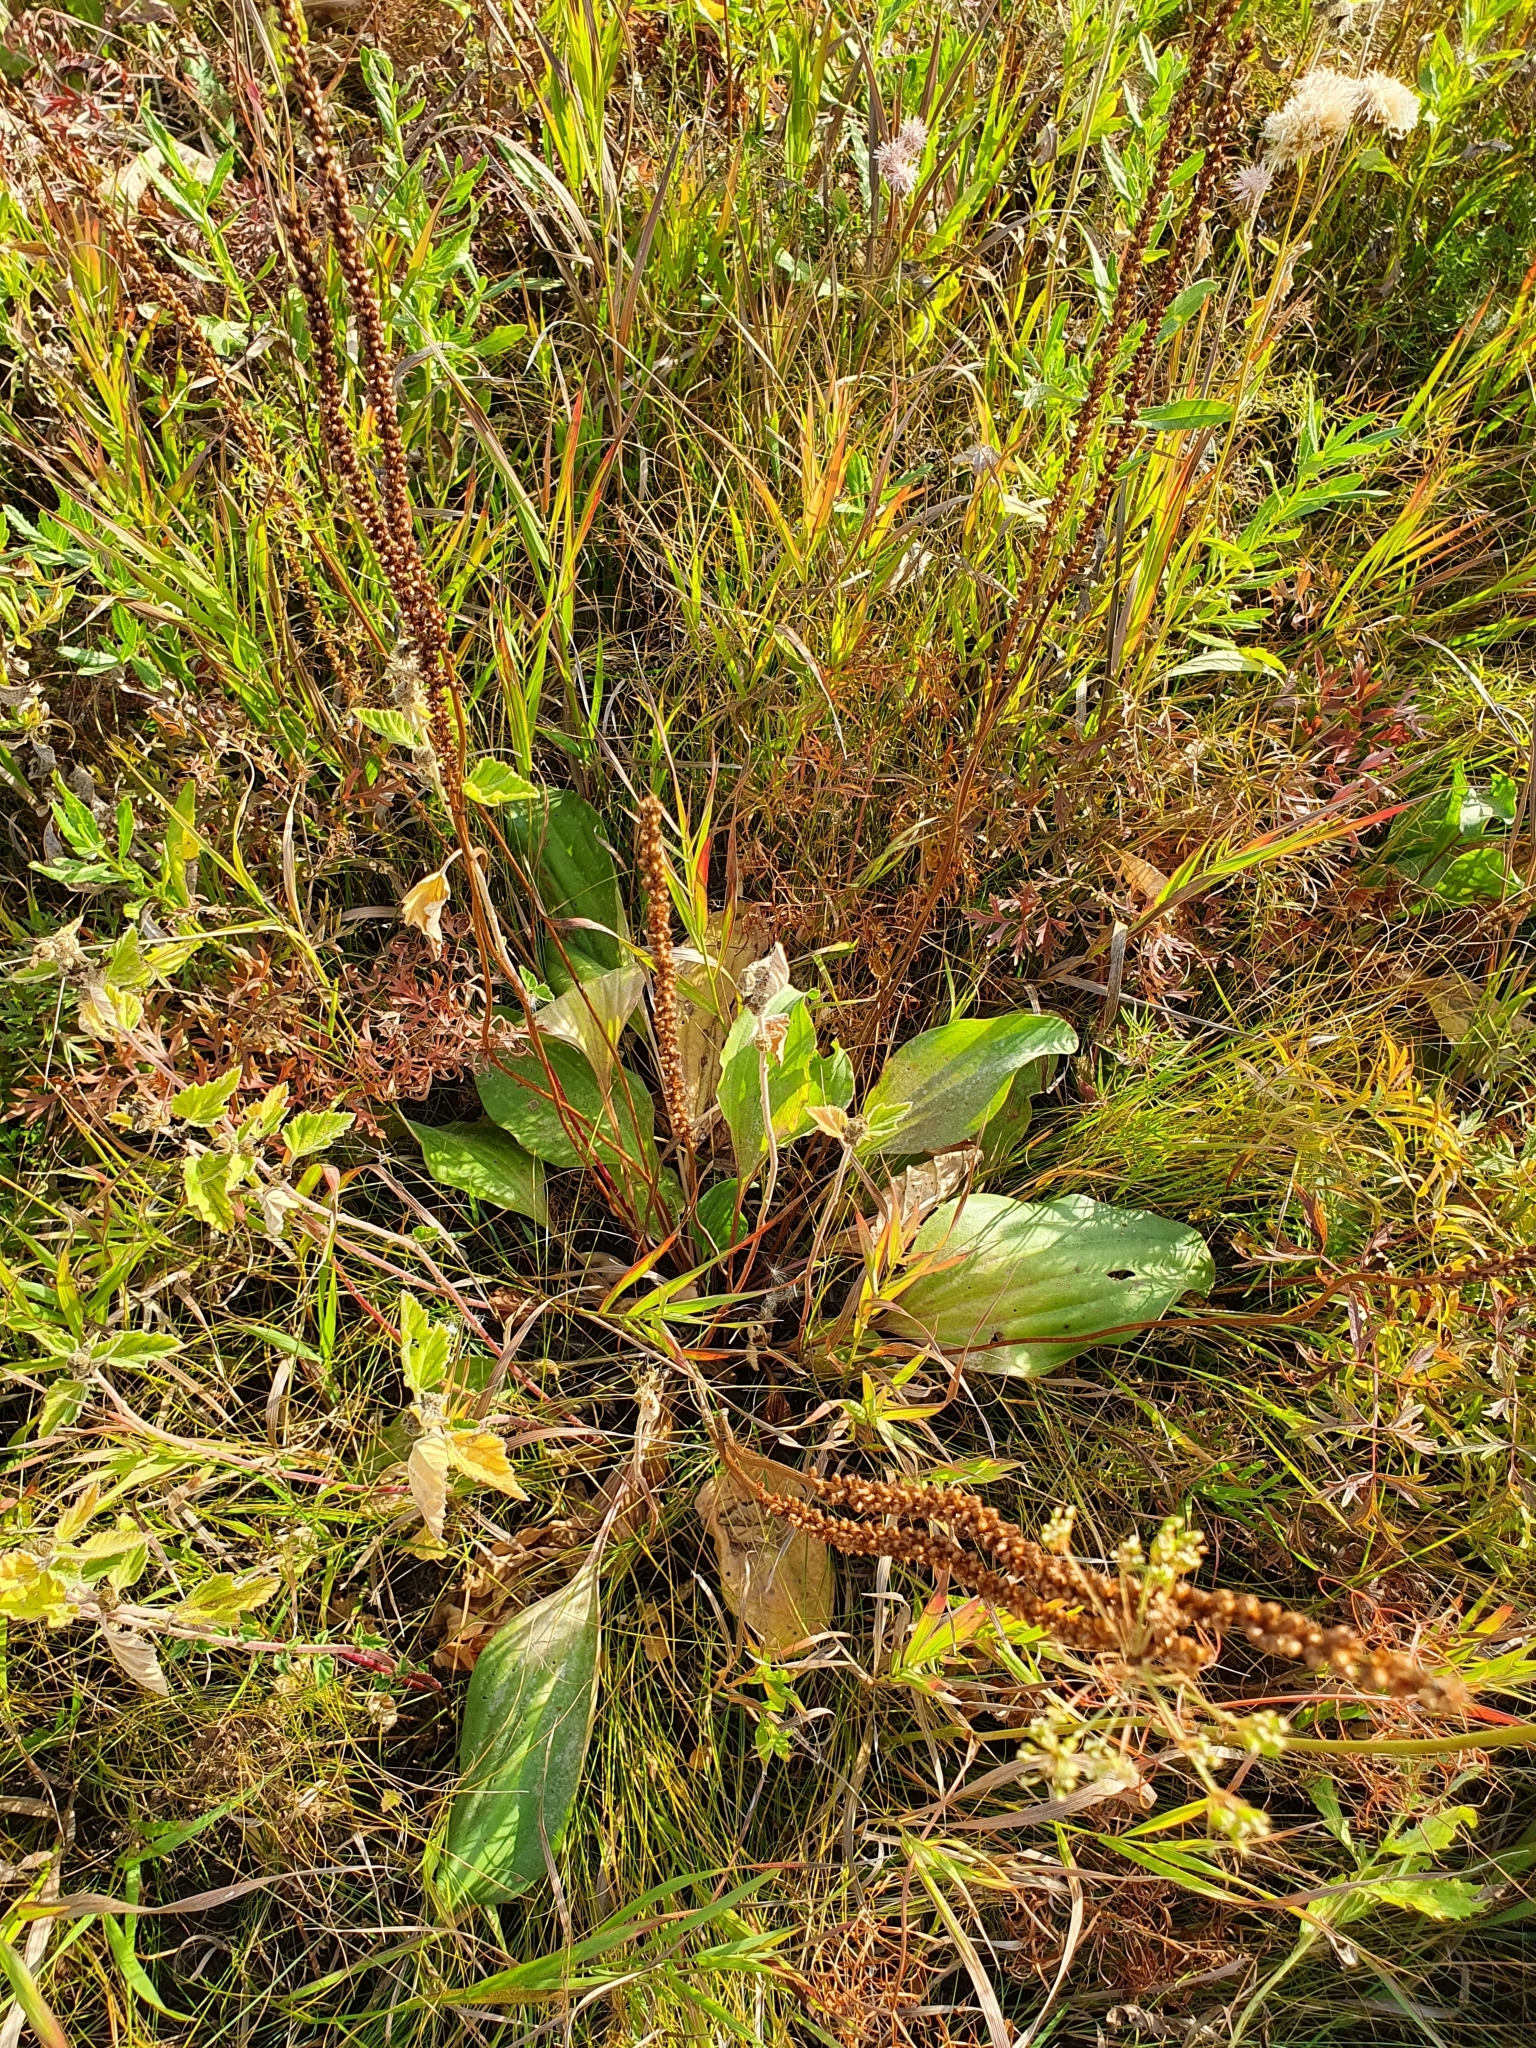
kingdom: Plantae
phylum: Tracheophyta
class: Magnoliopsida
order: Lamiales
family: Plantaginaceae
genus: Plantago
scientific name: Plantago cornuti
